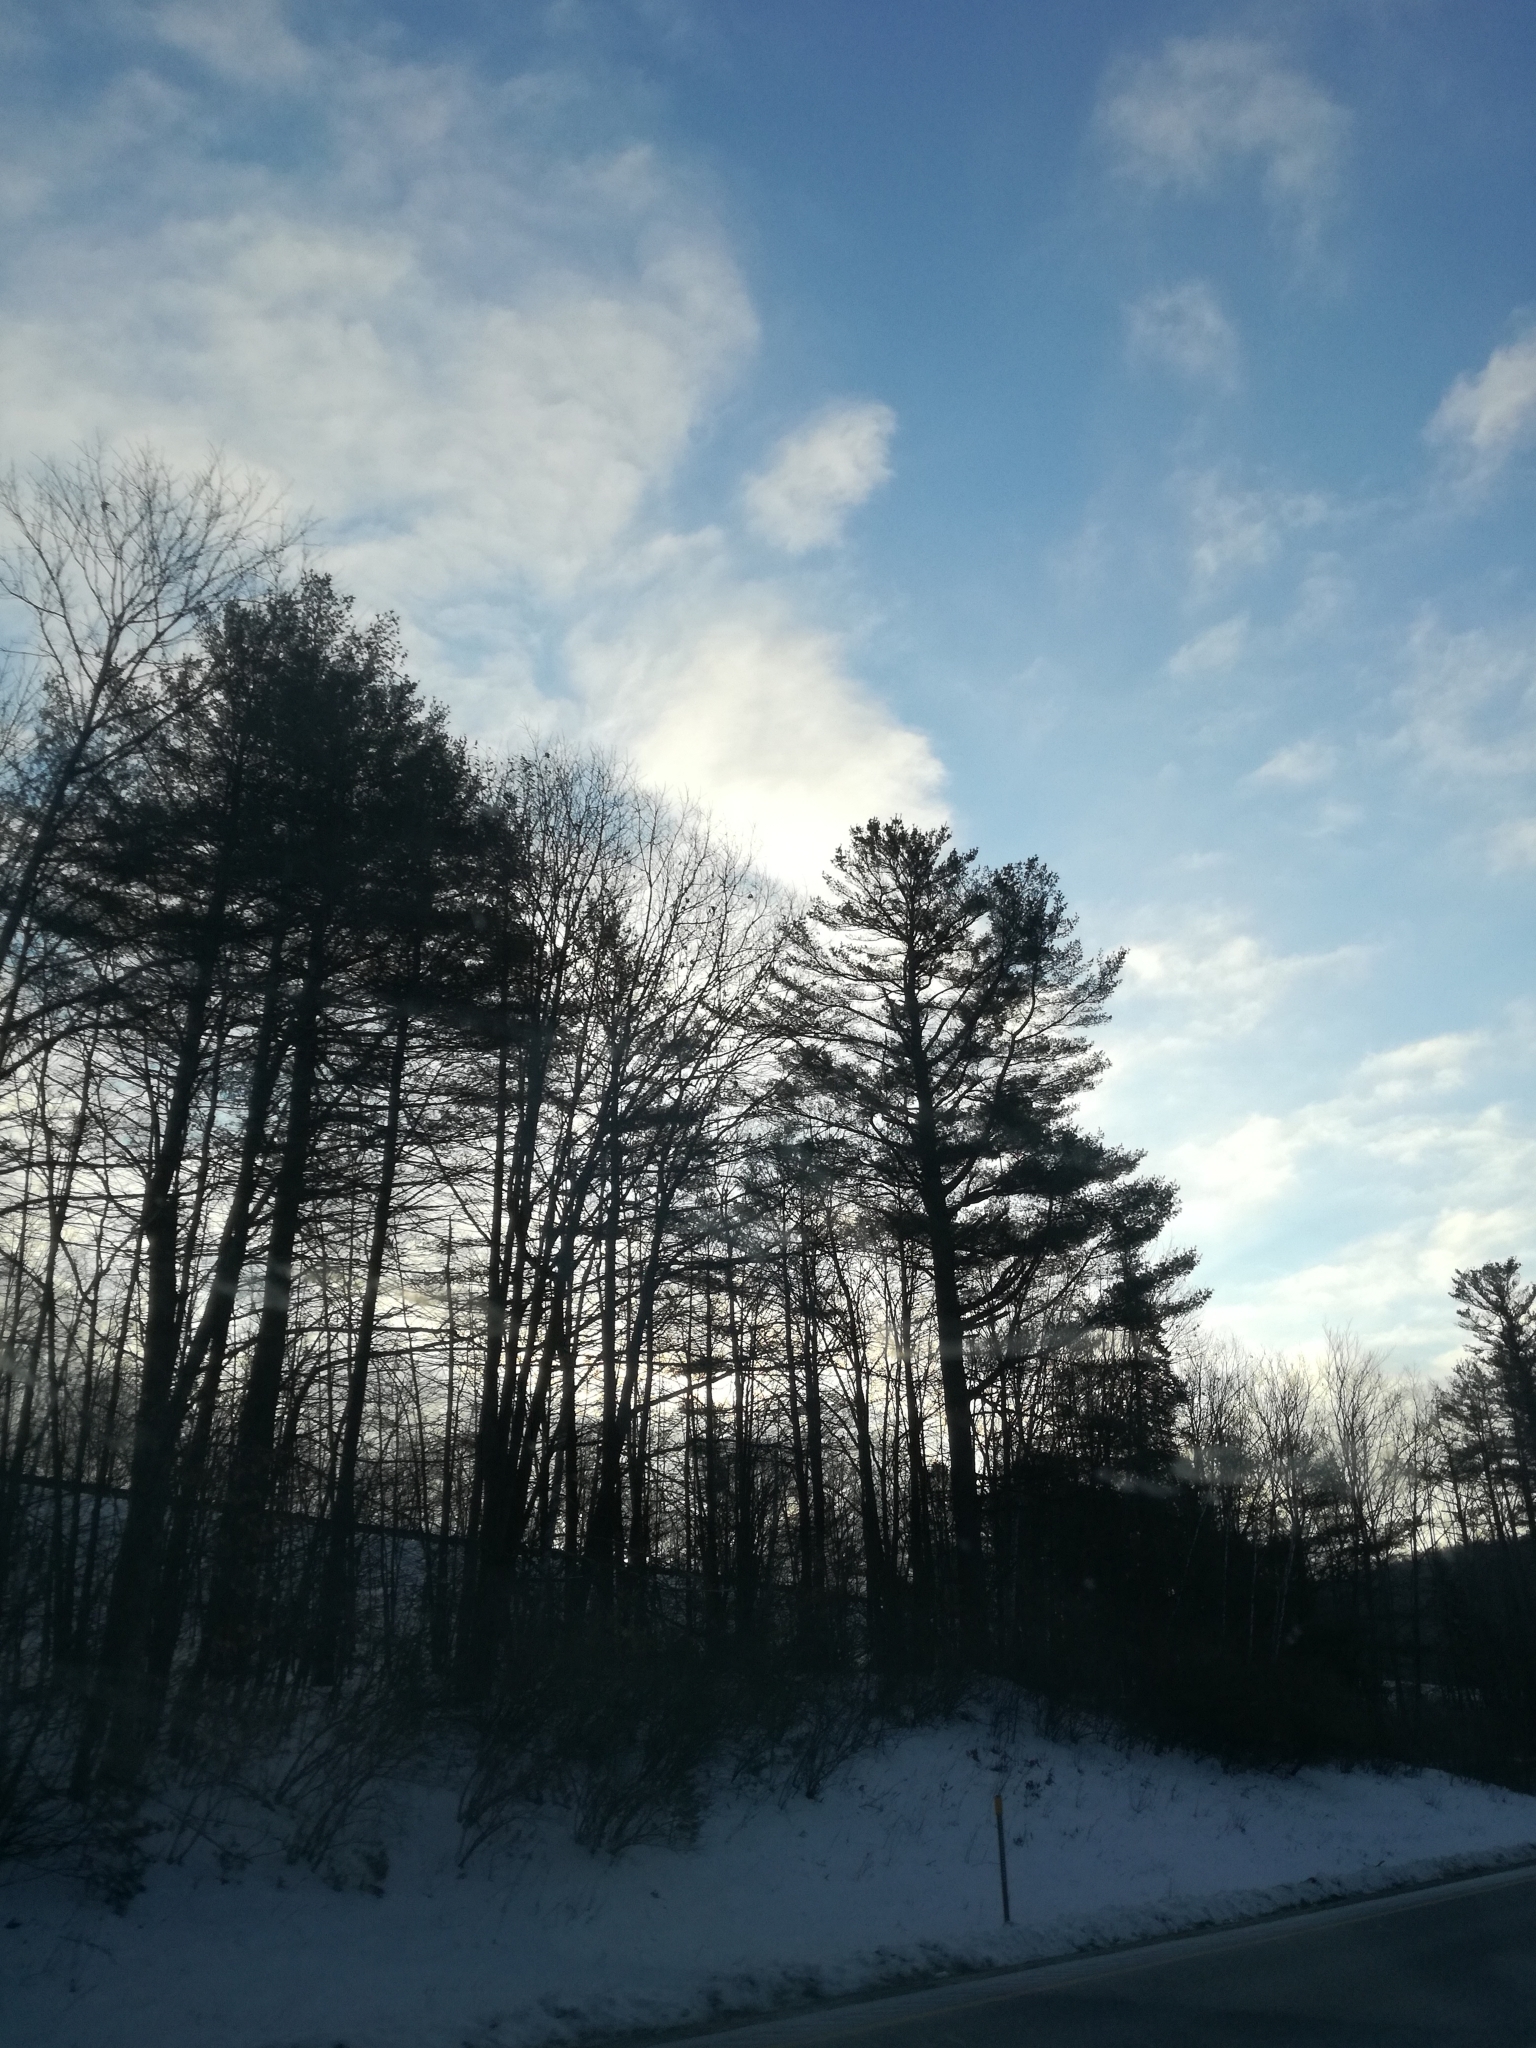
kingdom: Plantae
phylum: Tracheophyta
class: Pinopsida
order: Pinales
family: Pinaceae
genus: Pinus
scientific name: Pinus strobus
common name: Weymouth pine
